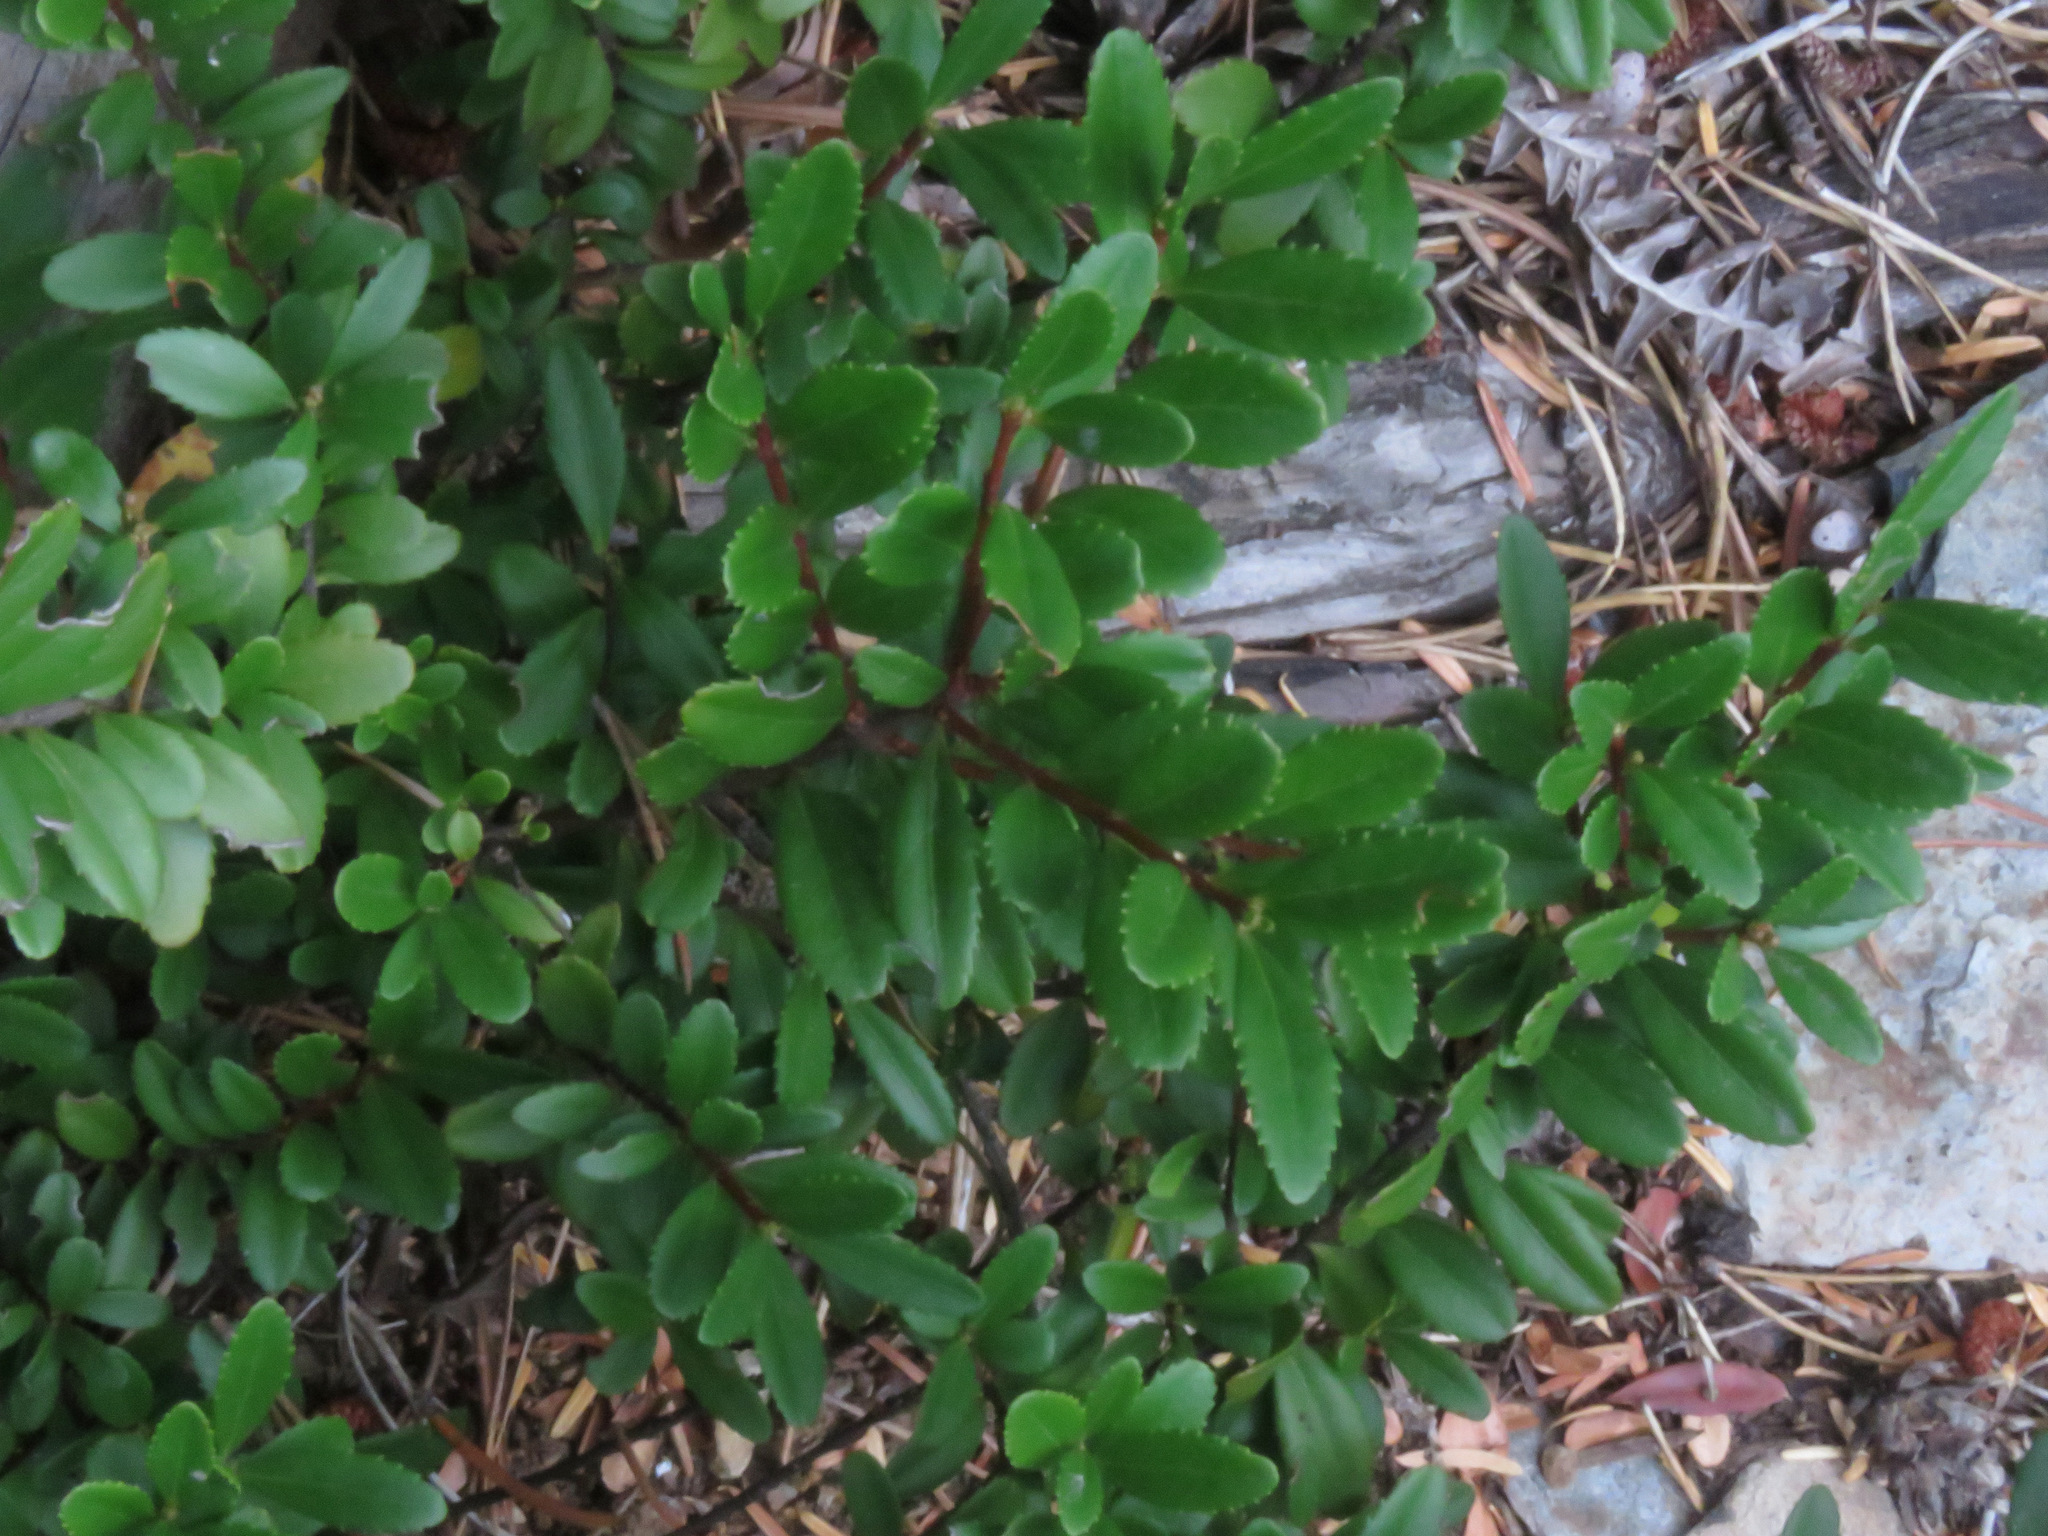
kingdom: Plantae
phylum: Tracheophyta
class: Magnoliopsida
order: Celastrales
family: Celastraceae
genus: Paxistima
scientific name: Paxistima myrsinites
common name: Mountain-lover
